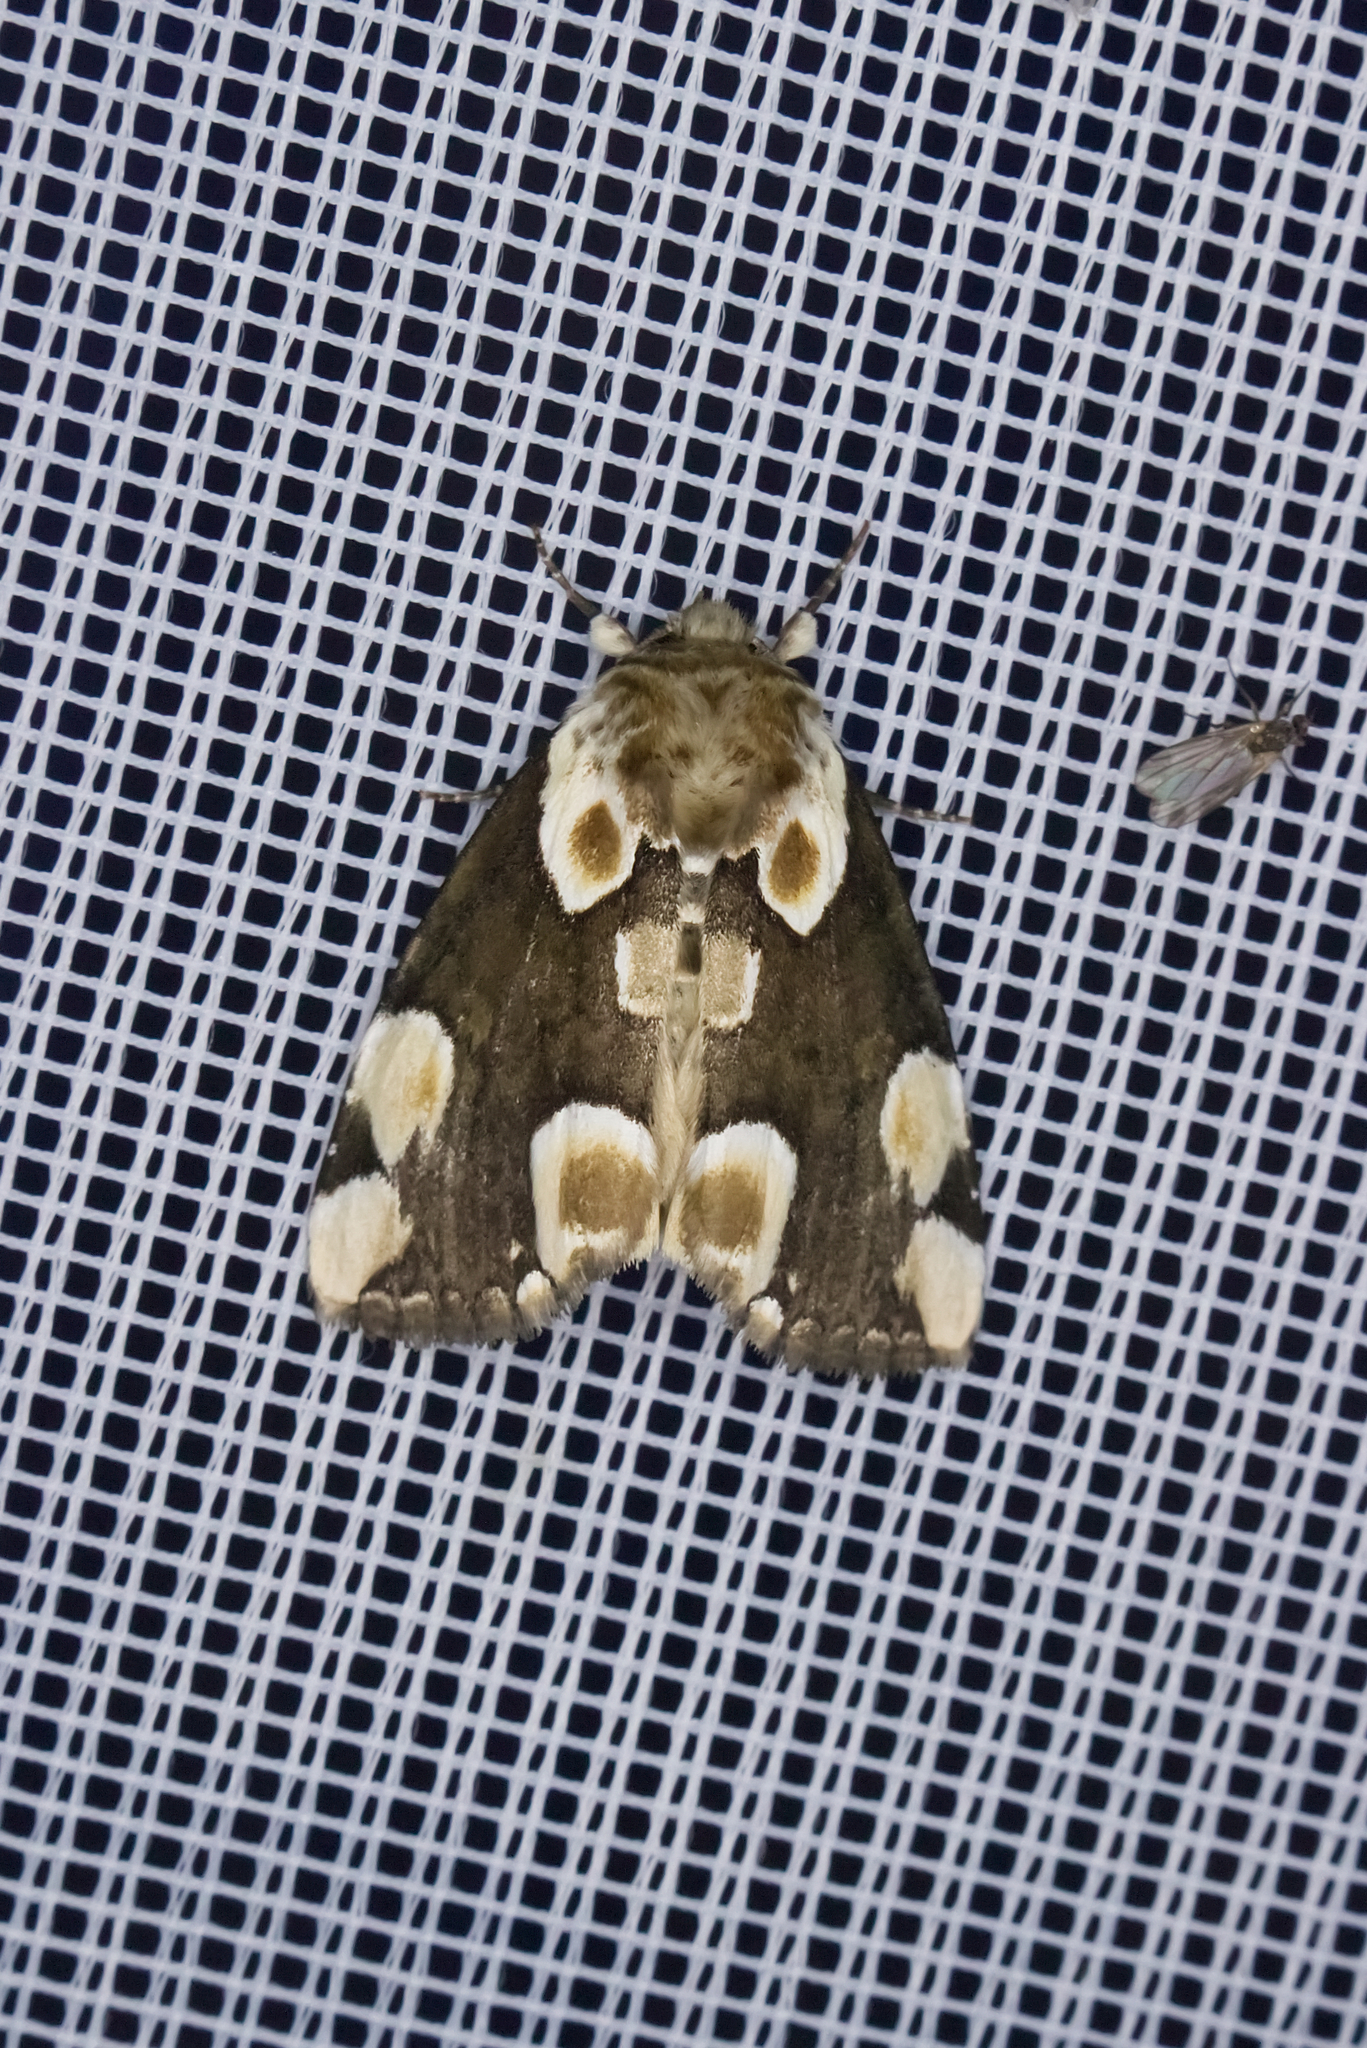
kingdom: Animalia
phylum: Arthropoda
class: Insecta
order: Lepidoptera
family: Drepanidae
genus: Thyatira
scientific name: Thyatira batis
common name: Peach blossom
